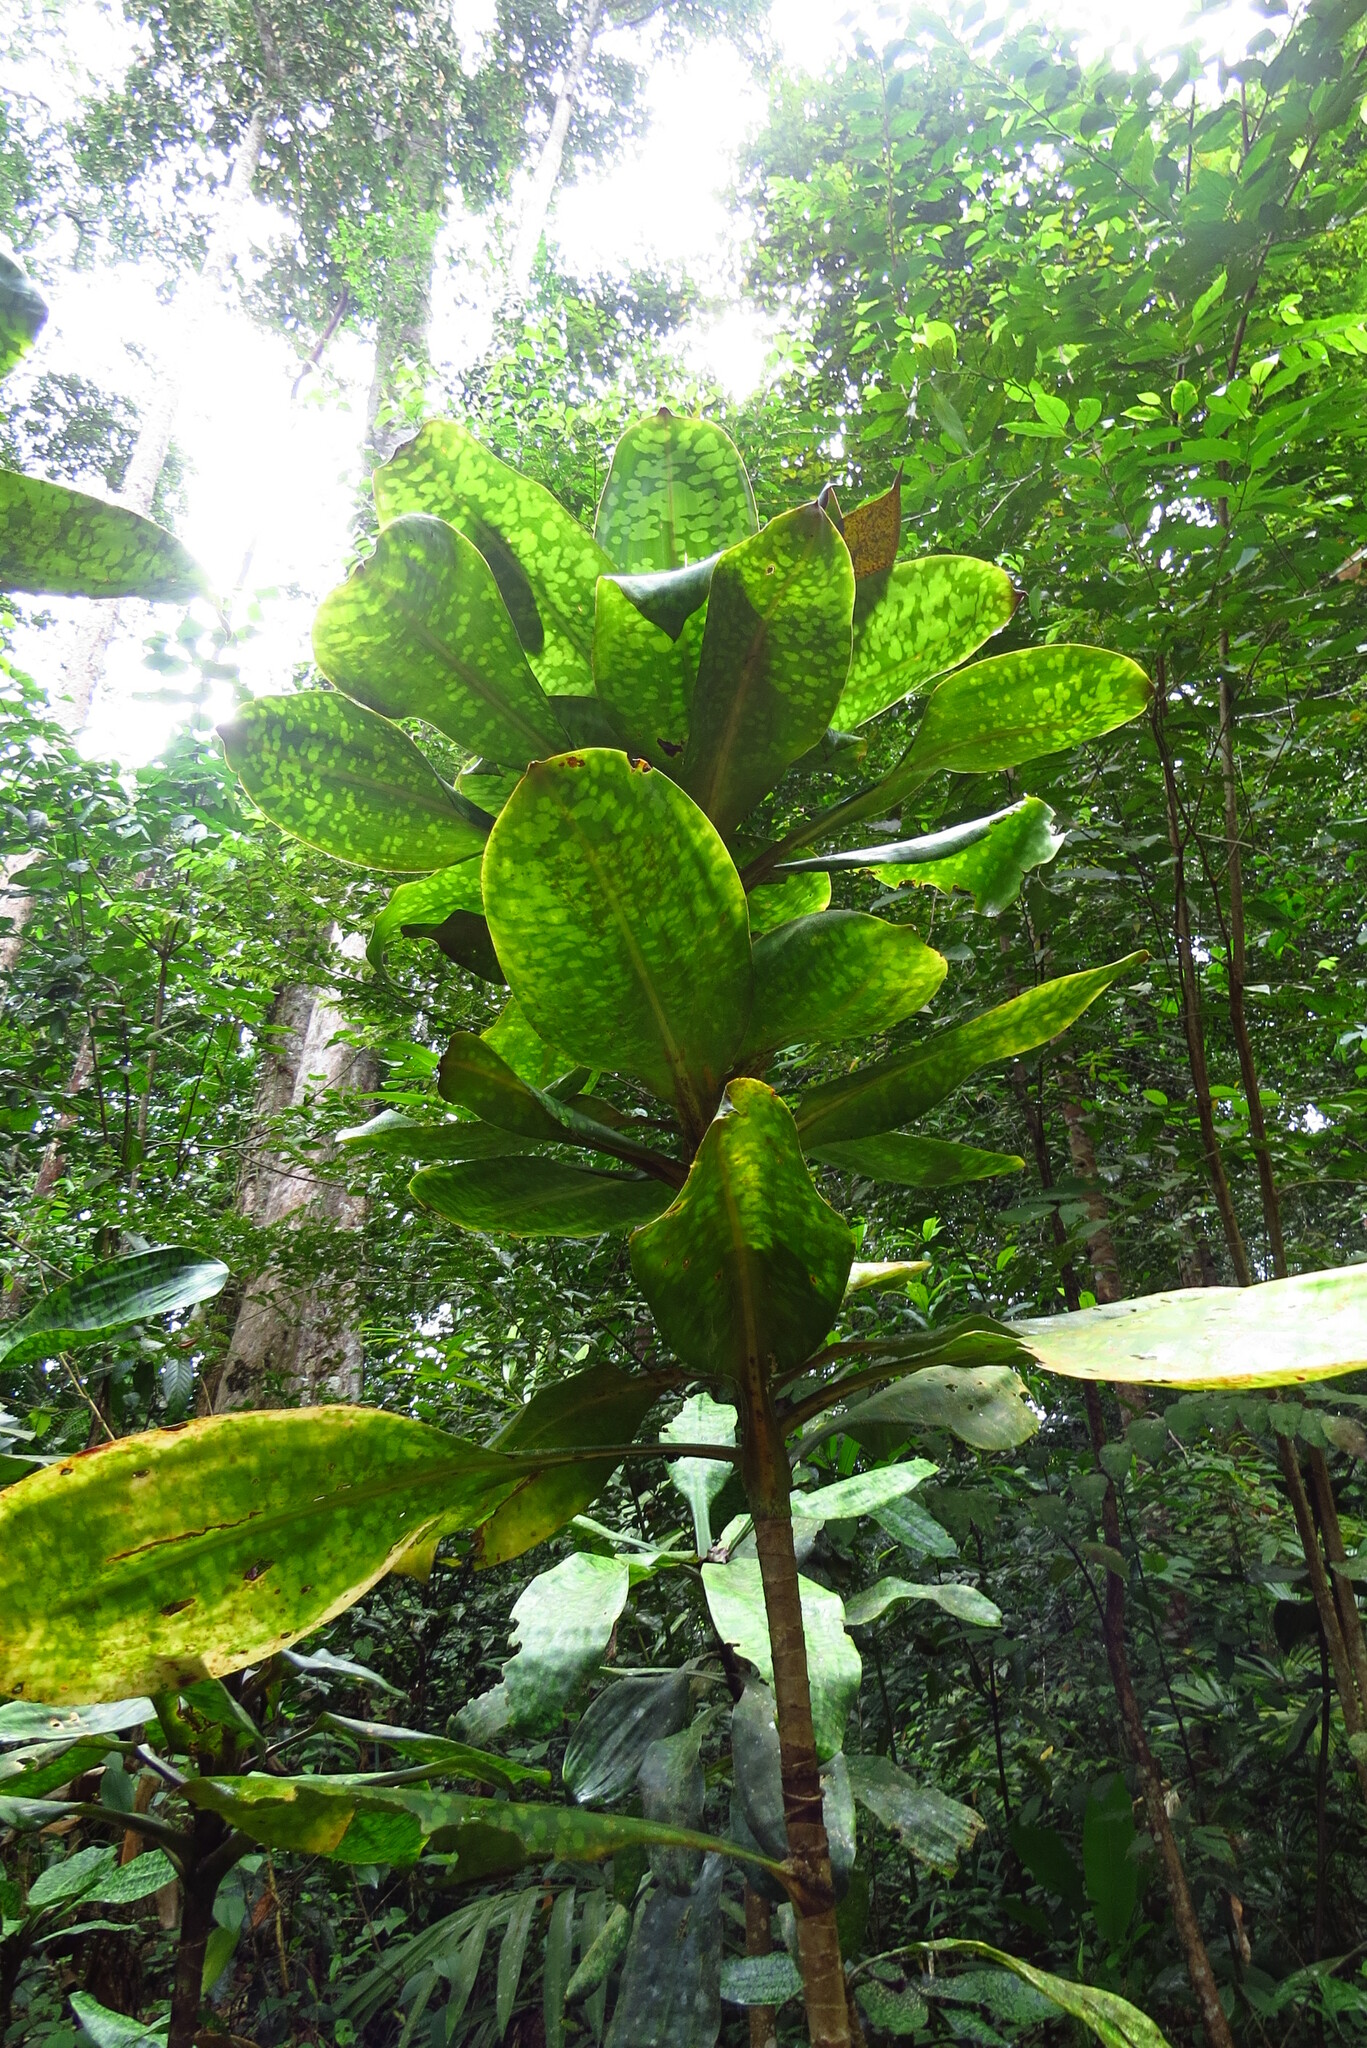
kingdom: Plantae
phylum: Tracheophyta
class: Liliopsida
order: Asparagales
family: Asparagaceae
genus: Dracaena
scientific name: Dracaena cantleyi
